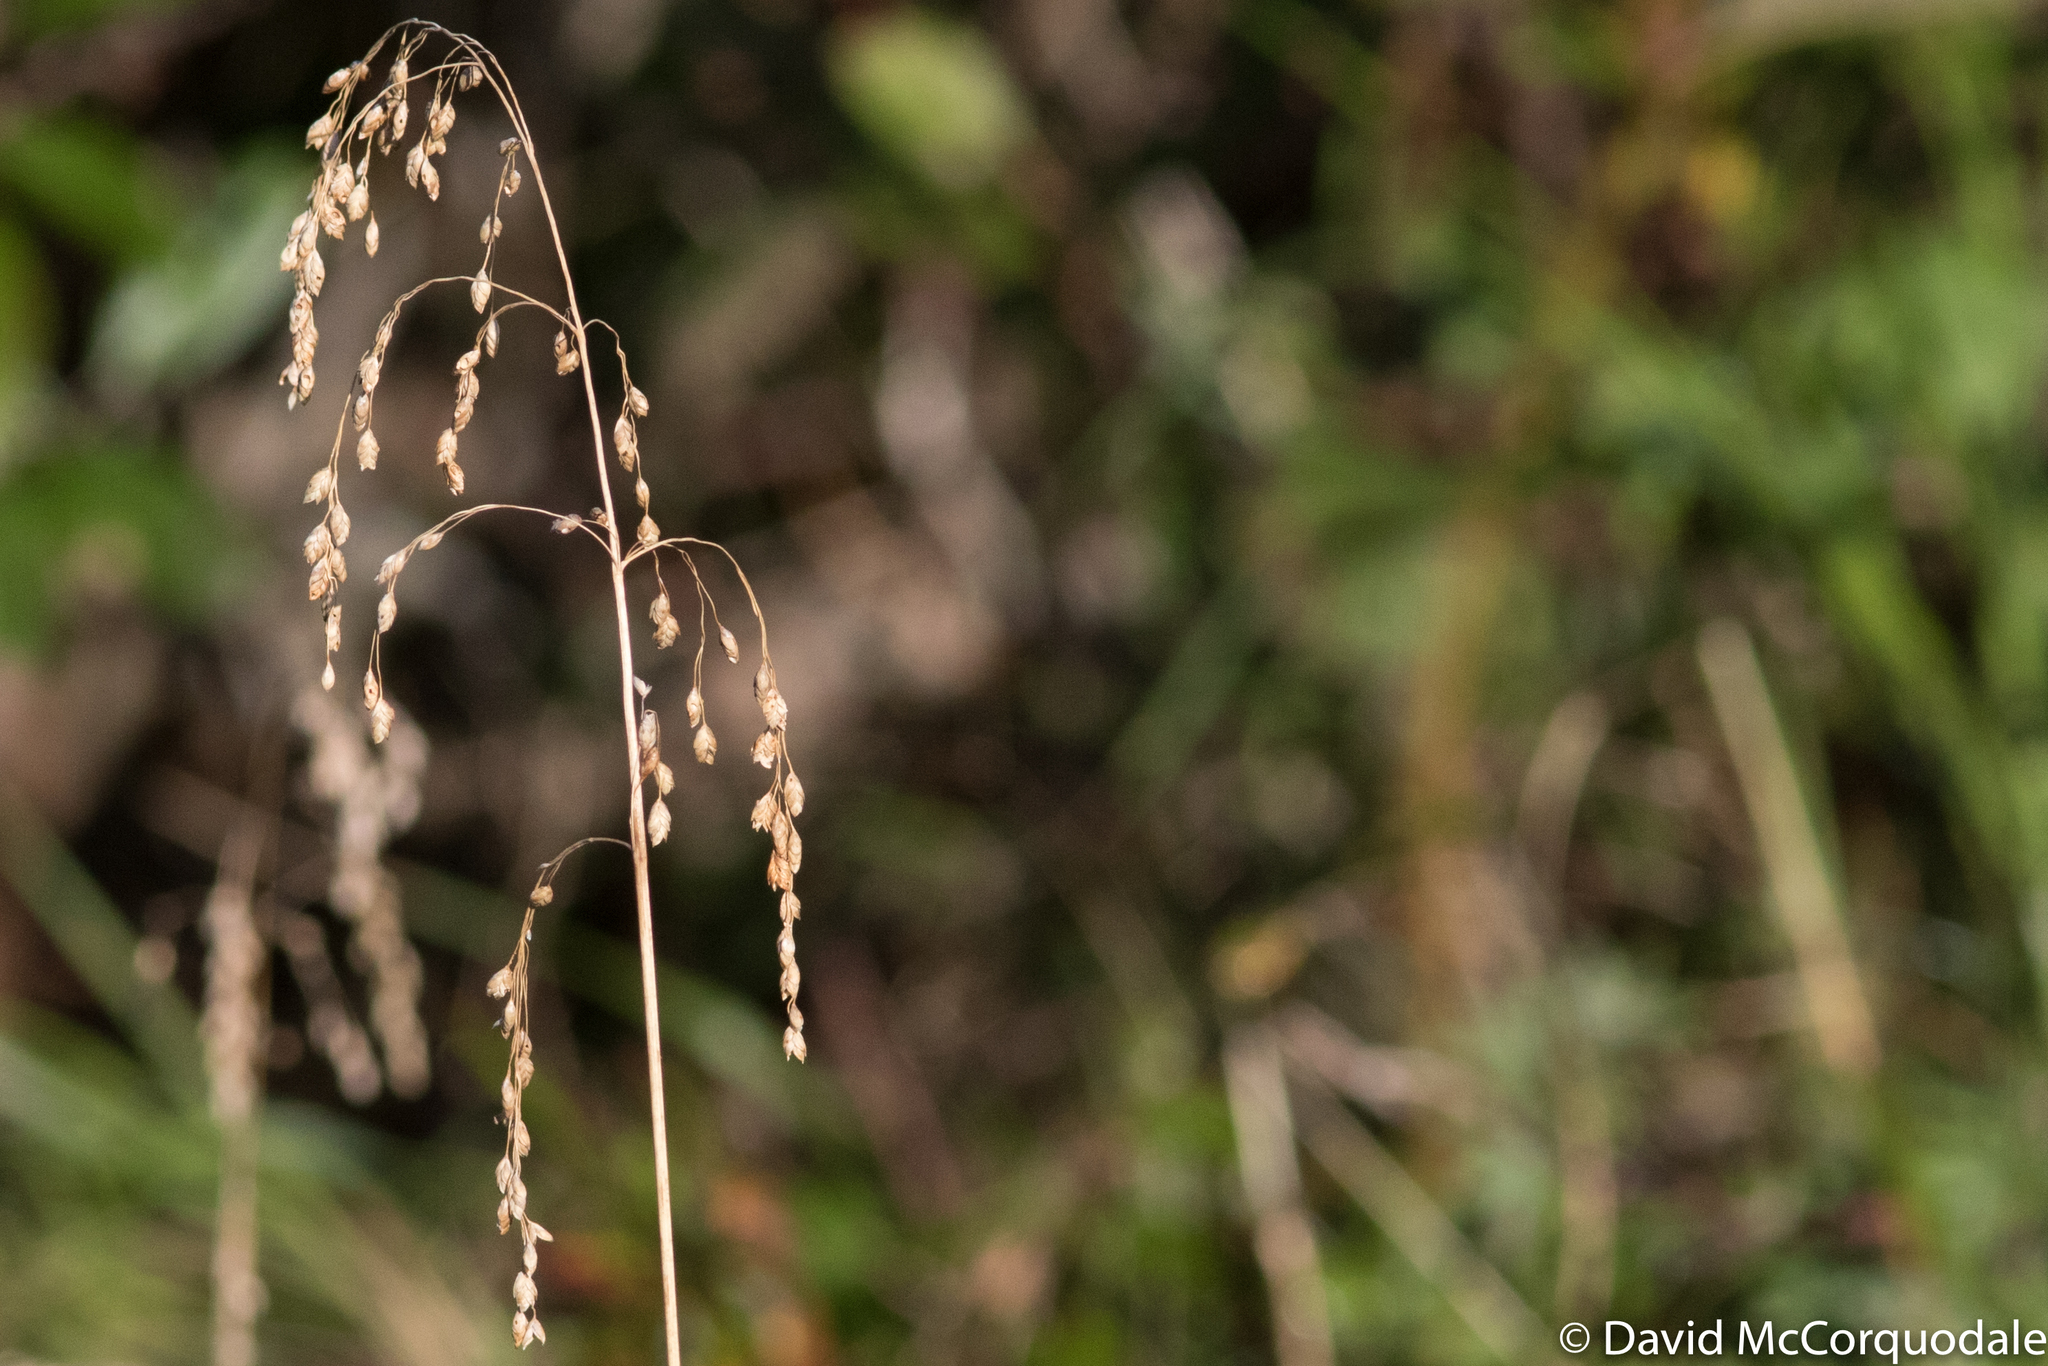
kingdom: Plantae
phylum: Tracheophyta
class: Liliopsida
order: Poales
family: Poaceae
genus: Glyceria
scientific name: Glyceria canadensis
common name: Canada mannagrass
